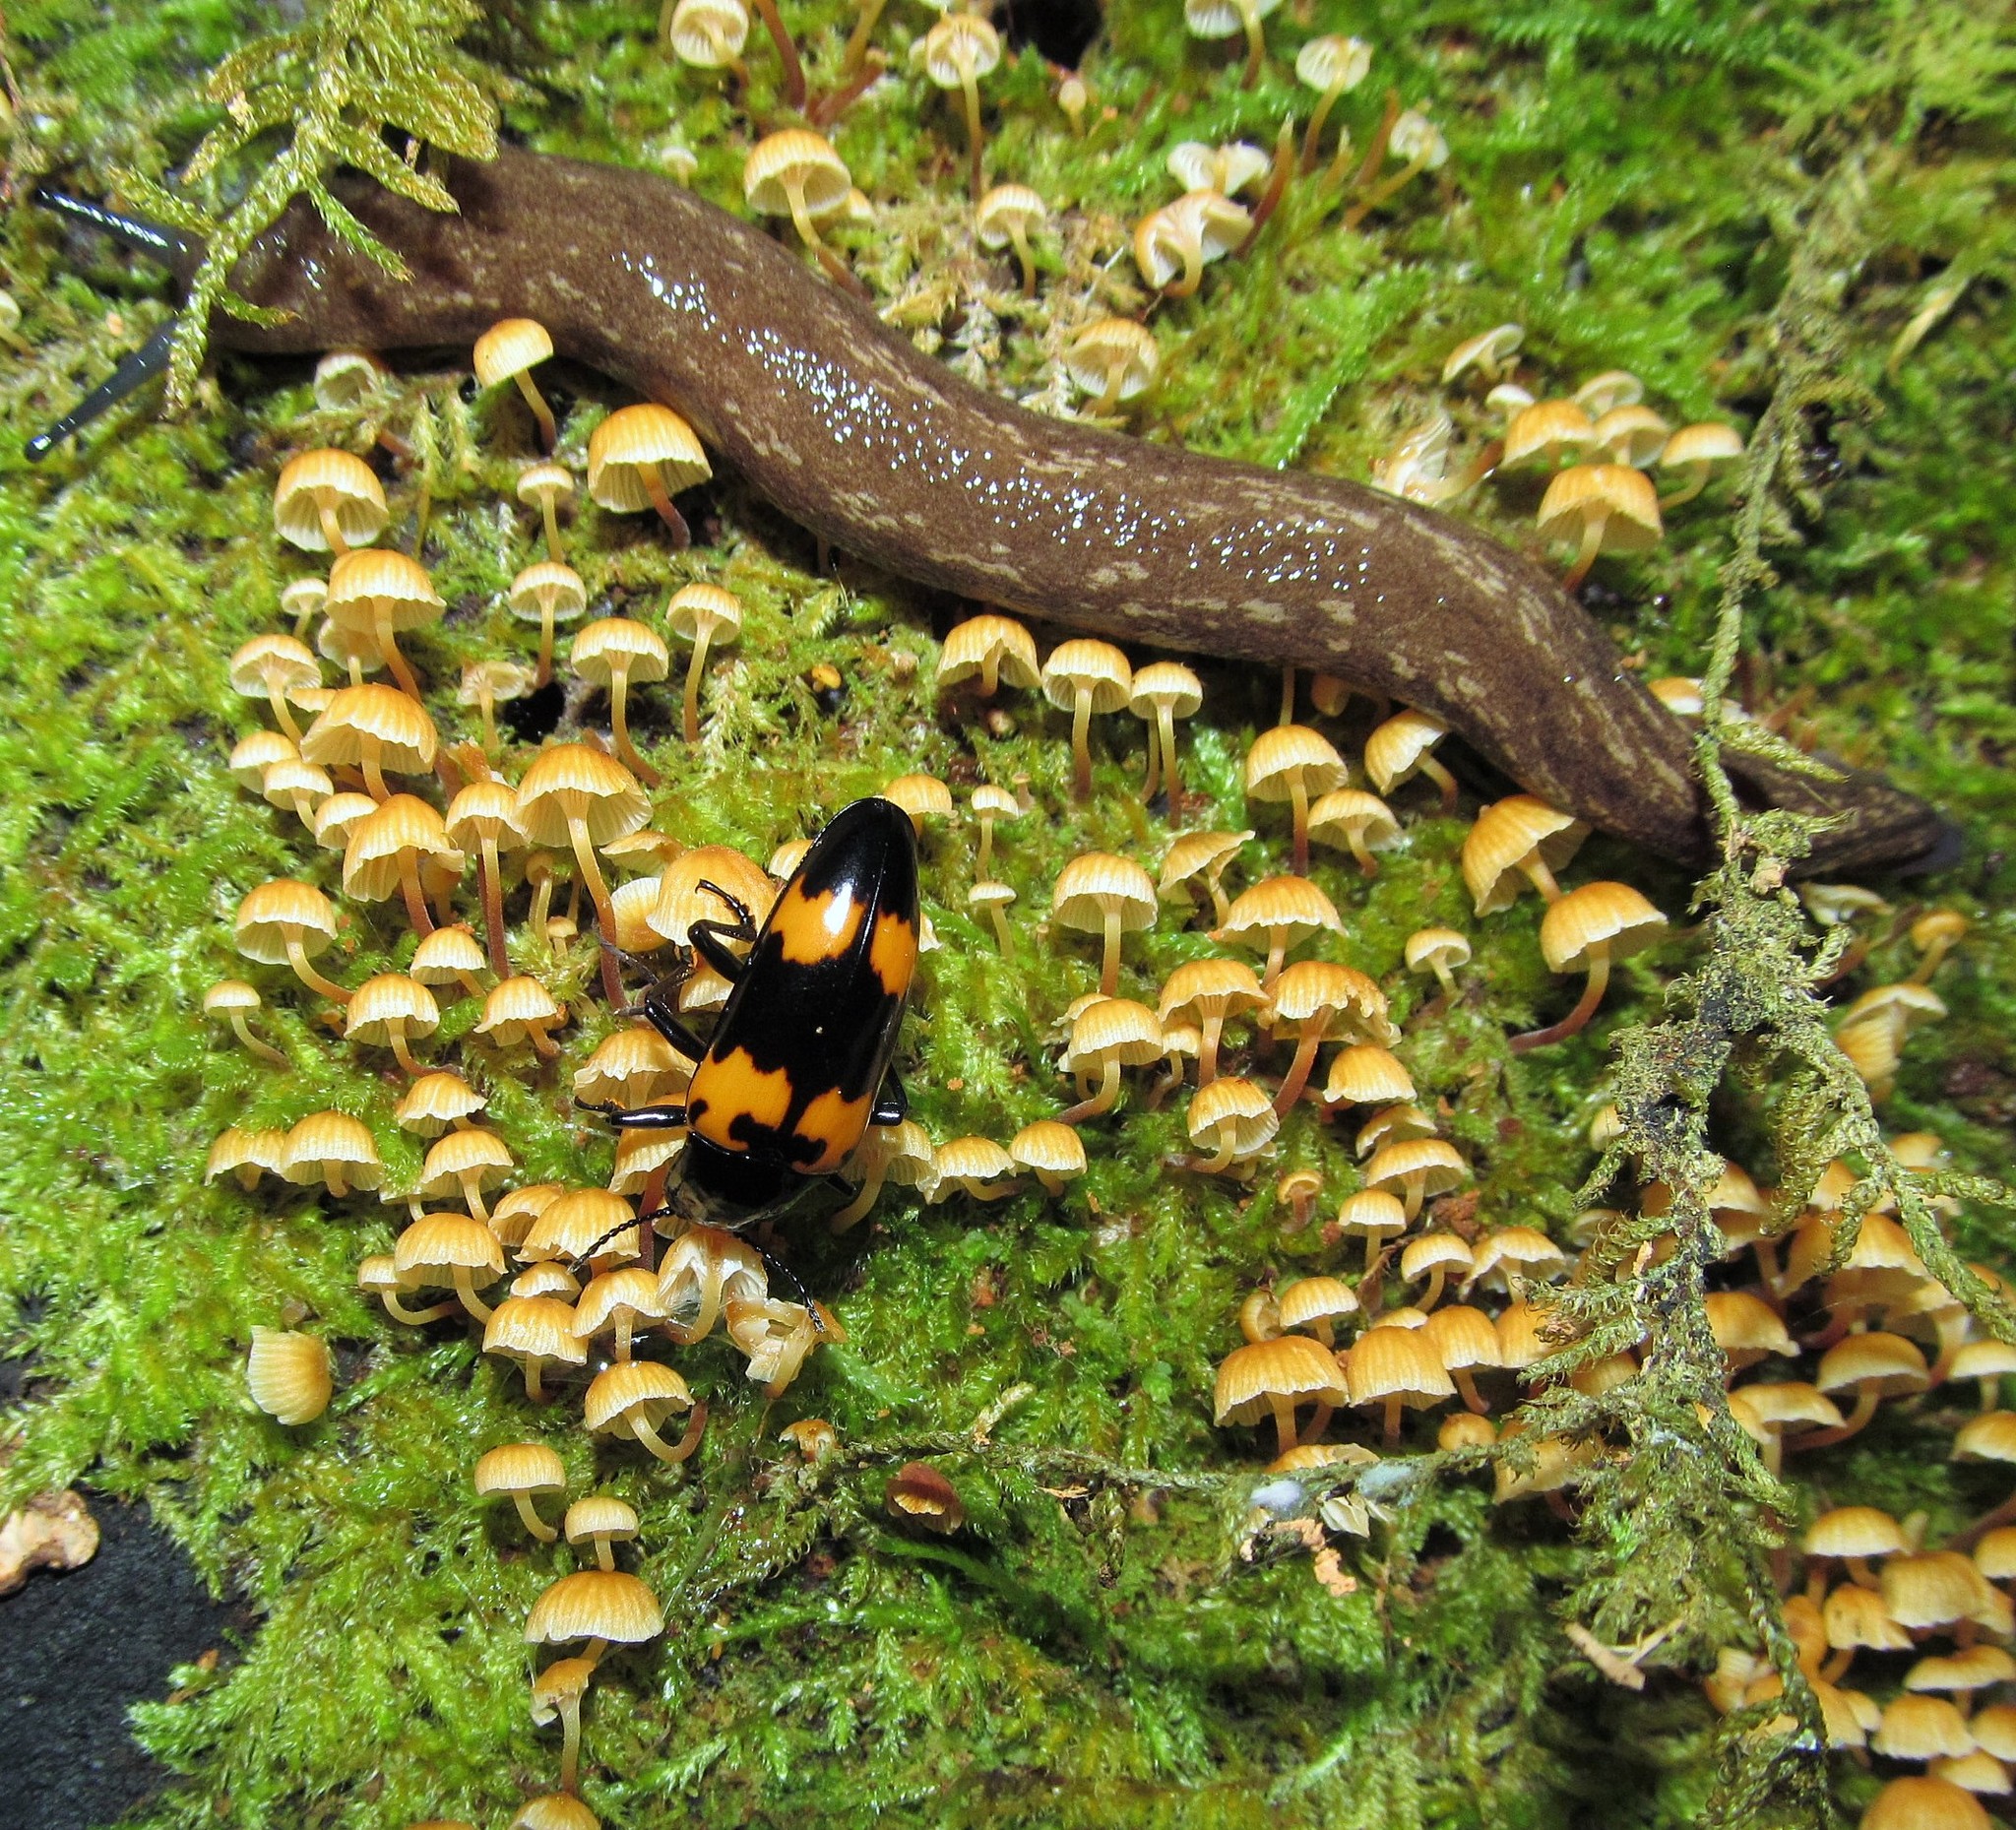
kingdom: Animalia
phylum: Arthropoda
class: Insecta
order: Coleoptera
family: Erotylidae
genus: Megalodacne
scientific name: Megalodacne heros
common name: Pleasing fungus beetle
